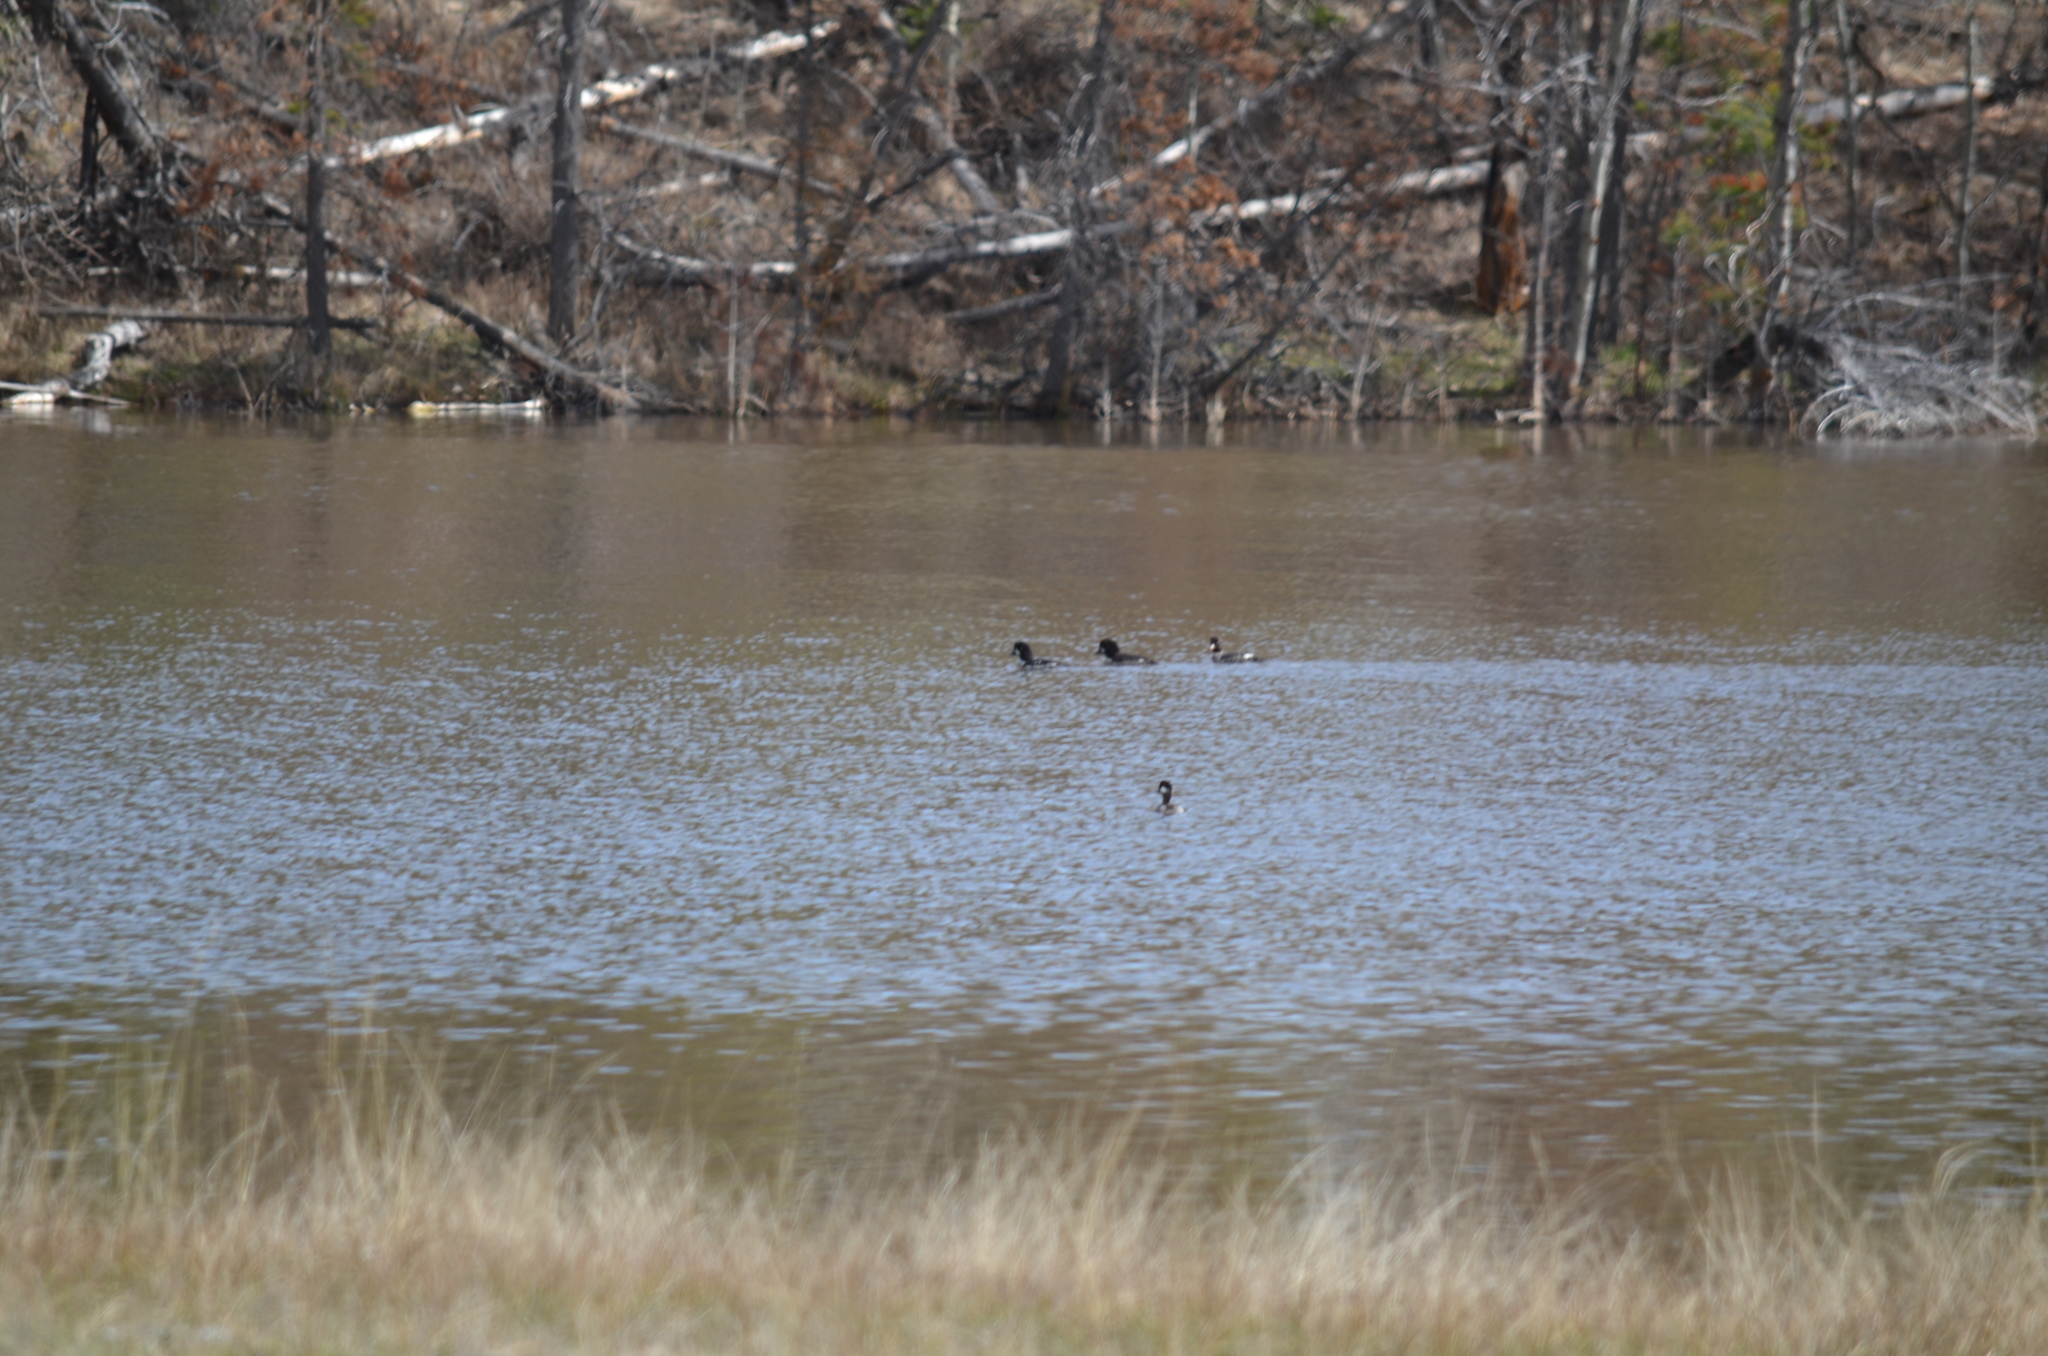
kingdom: Animalia
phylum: Chordata
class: Aves
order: Anseriformes
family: Anatidae
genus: Bucephala
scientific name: Bucephala islandica
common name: Barrow's goldeneye
